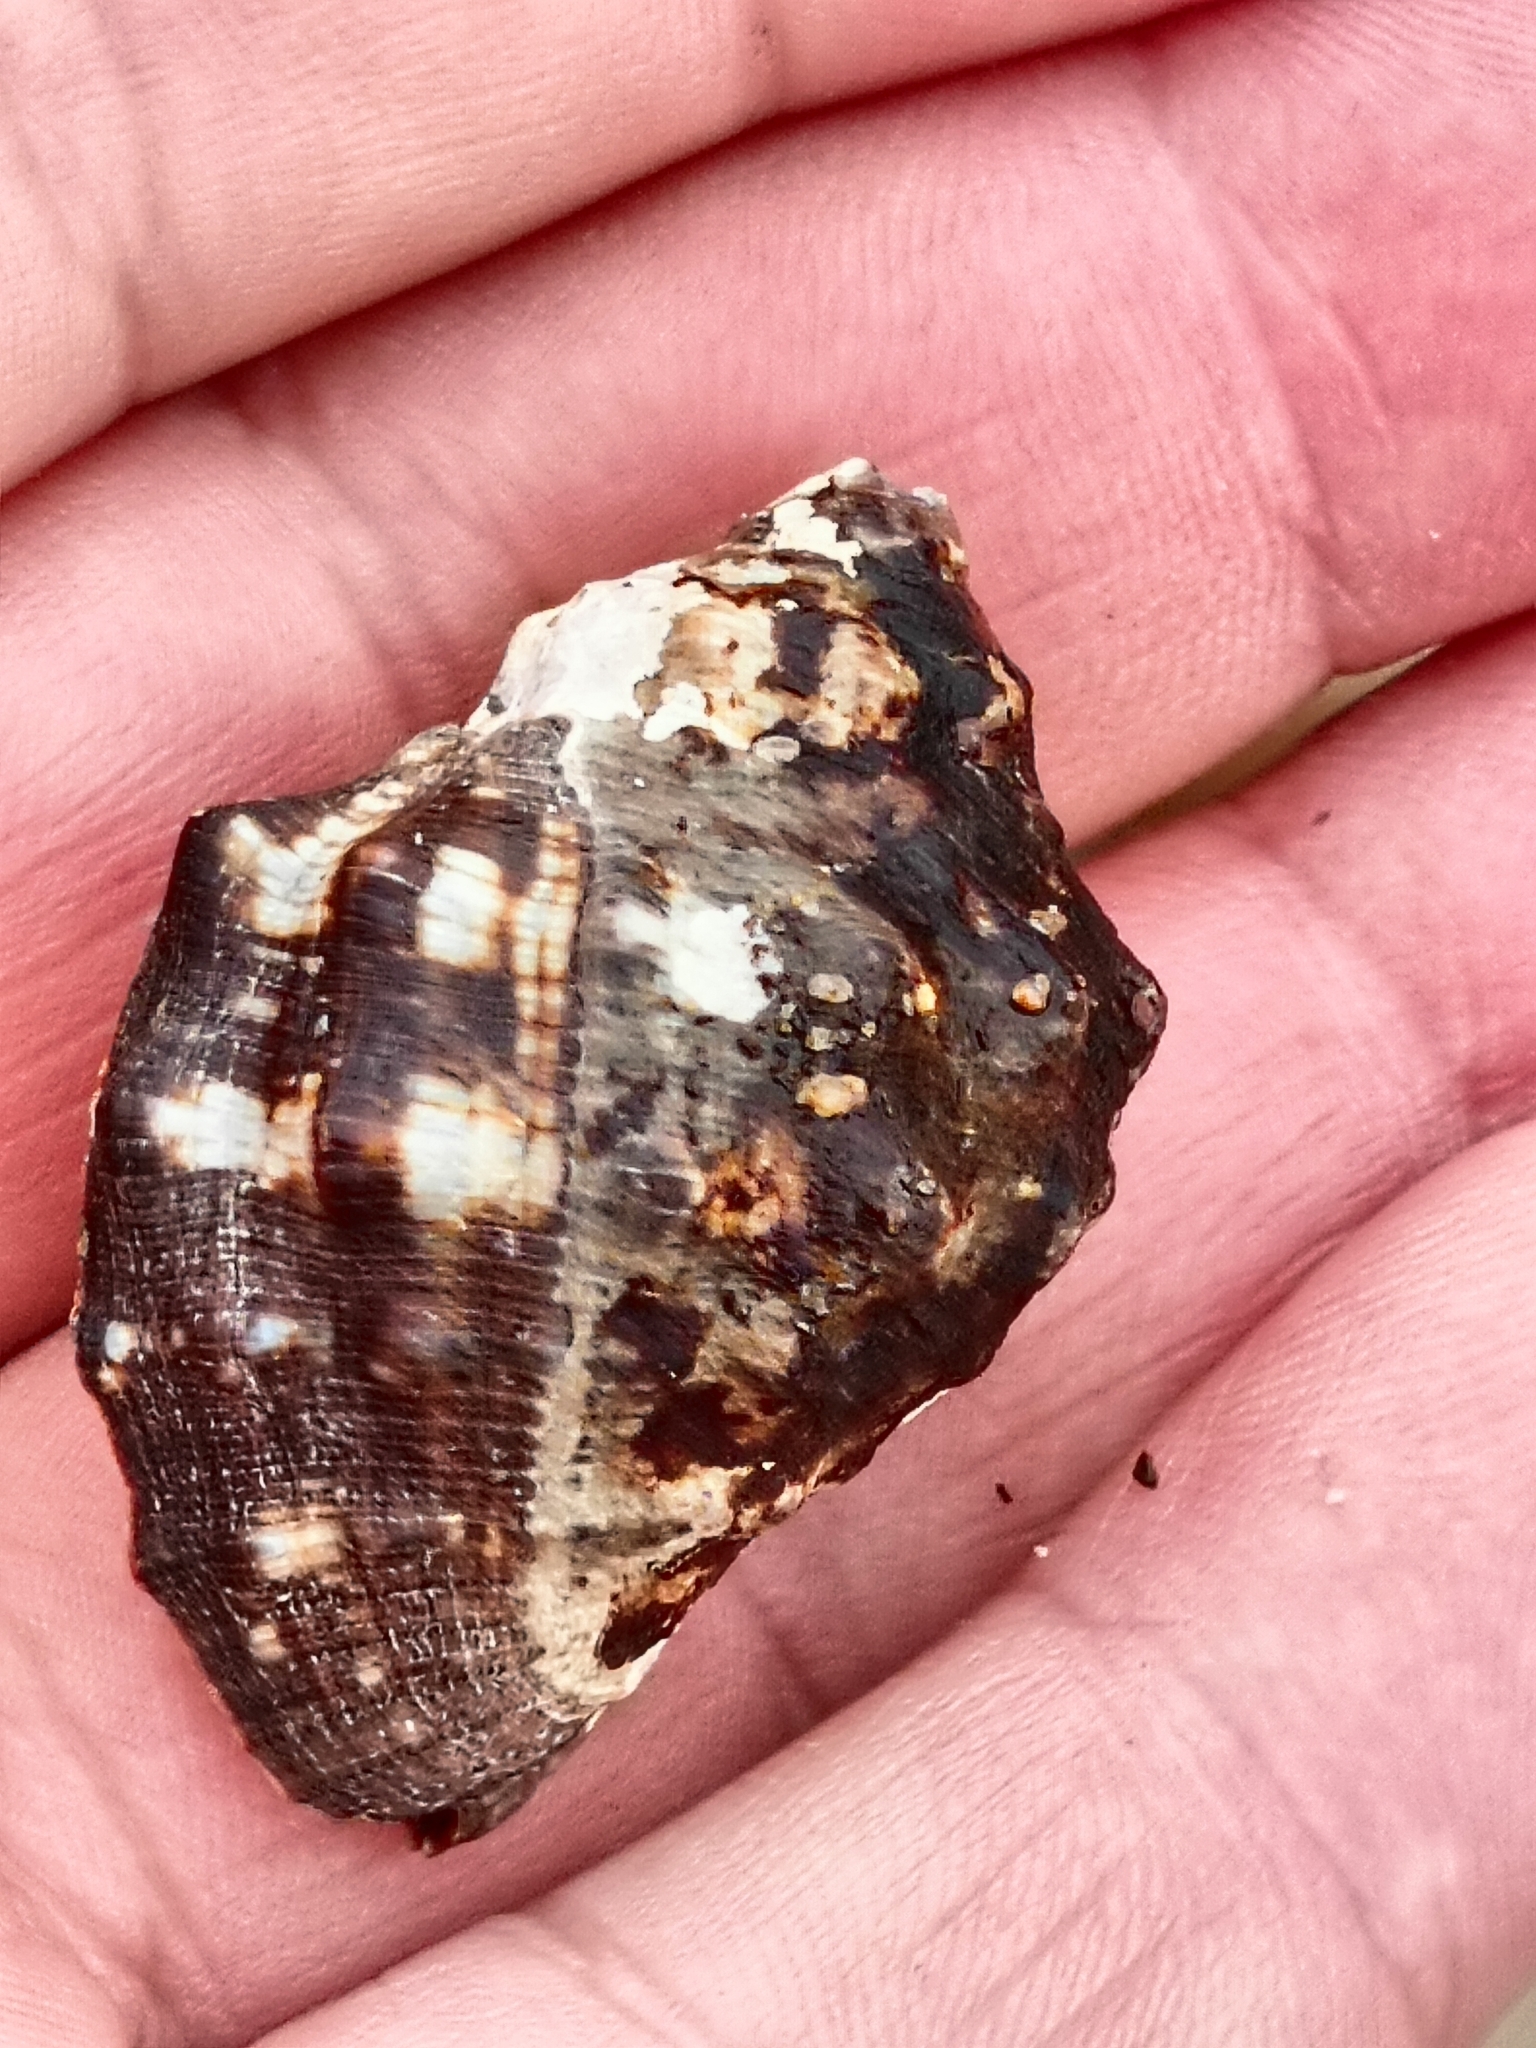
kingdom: Animalia
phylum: Mollusca
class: Gastropoda
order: Neogastropoda
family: Muricidae
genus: Stramonita
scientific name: Stramonita haemastoma
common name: Florida dog winkle
